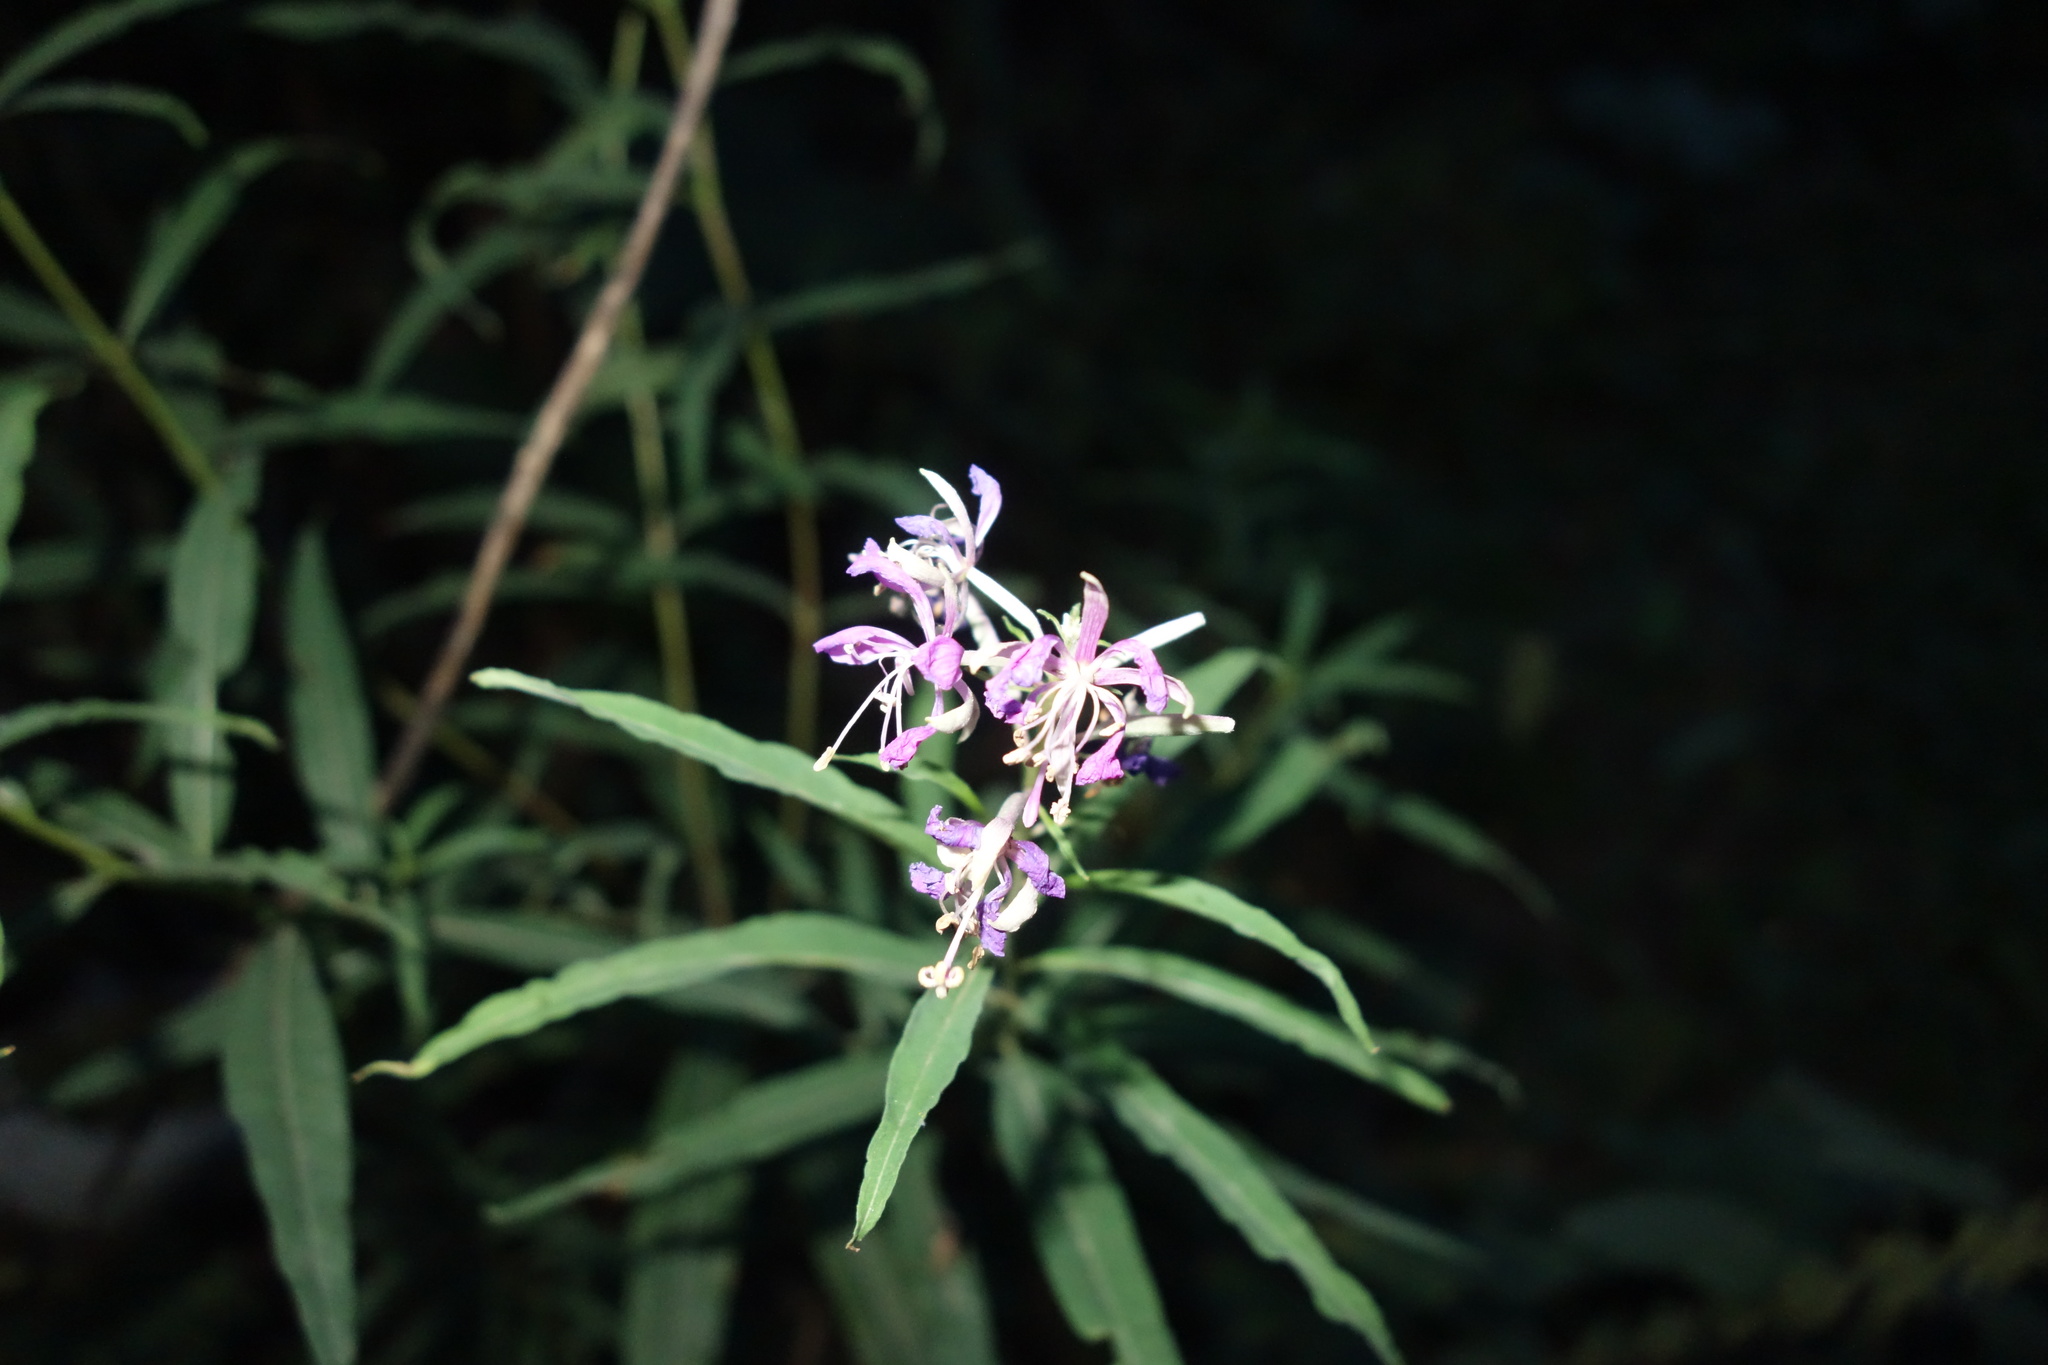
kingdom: Plantae
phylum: Tracheophyta
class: Magnoliopsida
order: Myrtales
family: Onagraceae
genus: Chamaenerion
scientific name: Chamaenerion angustifolium
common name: Fireweed
